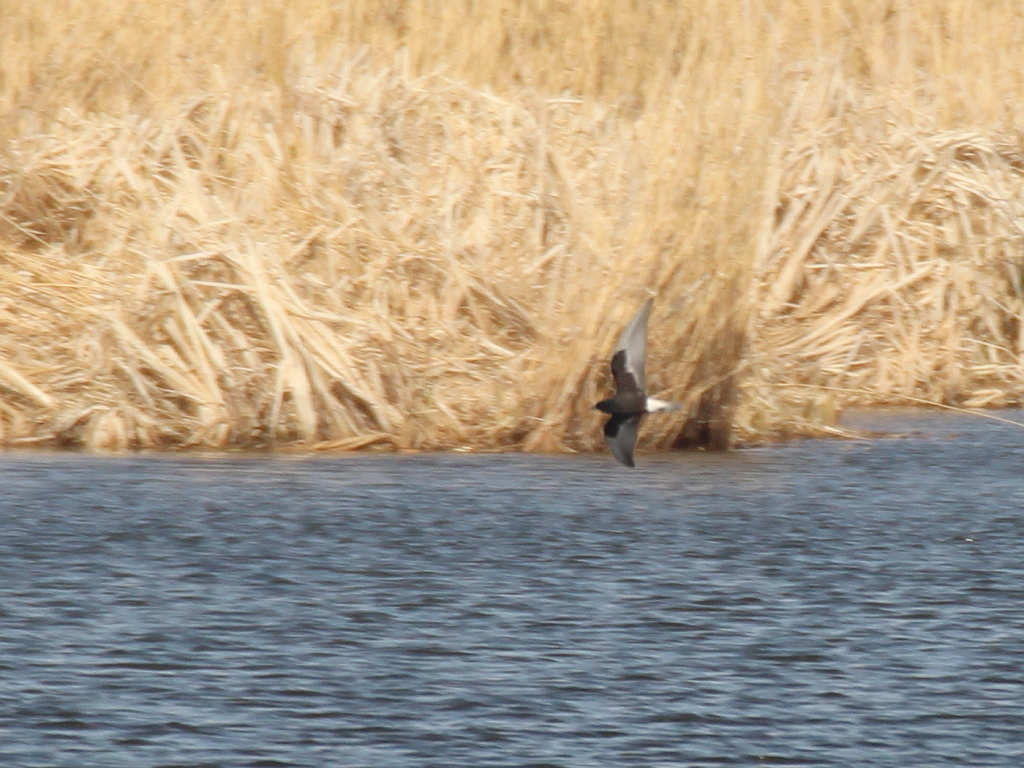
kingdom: Animalia
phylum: Chordata
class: Aves
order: Charadriiformes
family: Laridae
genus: Chlidonias
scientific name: Chlidonias leucopterus
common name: White-winged tern
